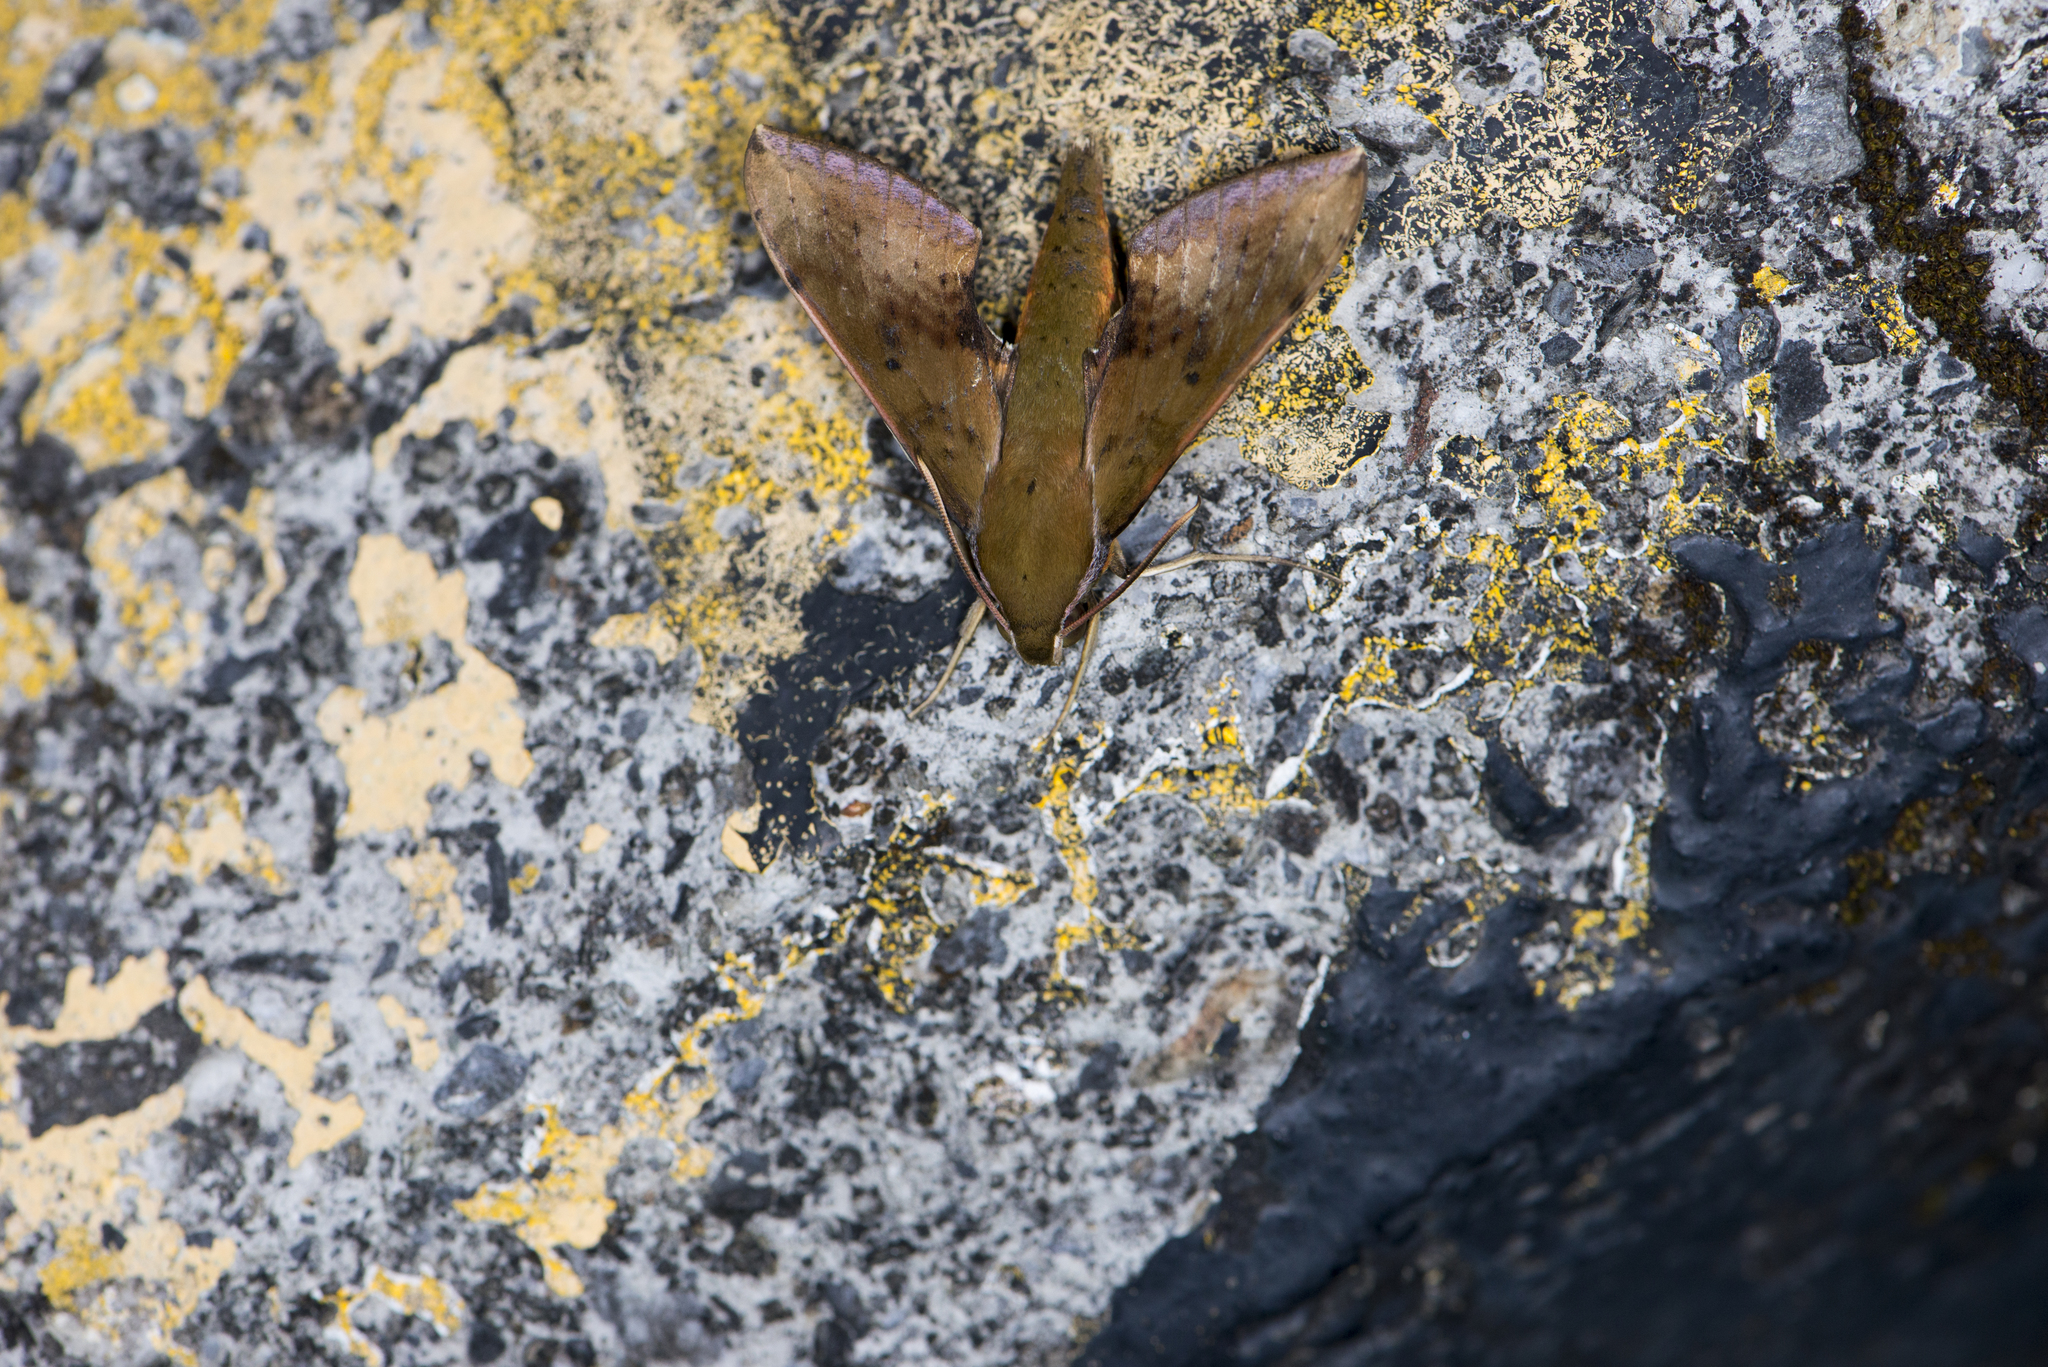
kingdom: Animalia
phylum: Arthropoda
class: Insecta
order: Lepidoptera
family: Sphingidae
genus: Rhagastis
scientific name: Rhagastis castor
